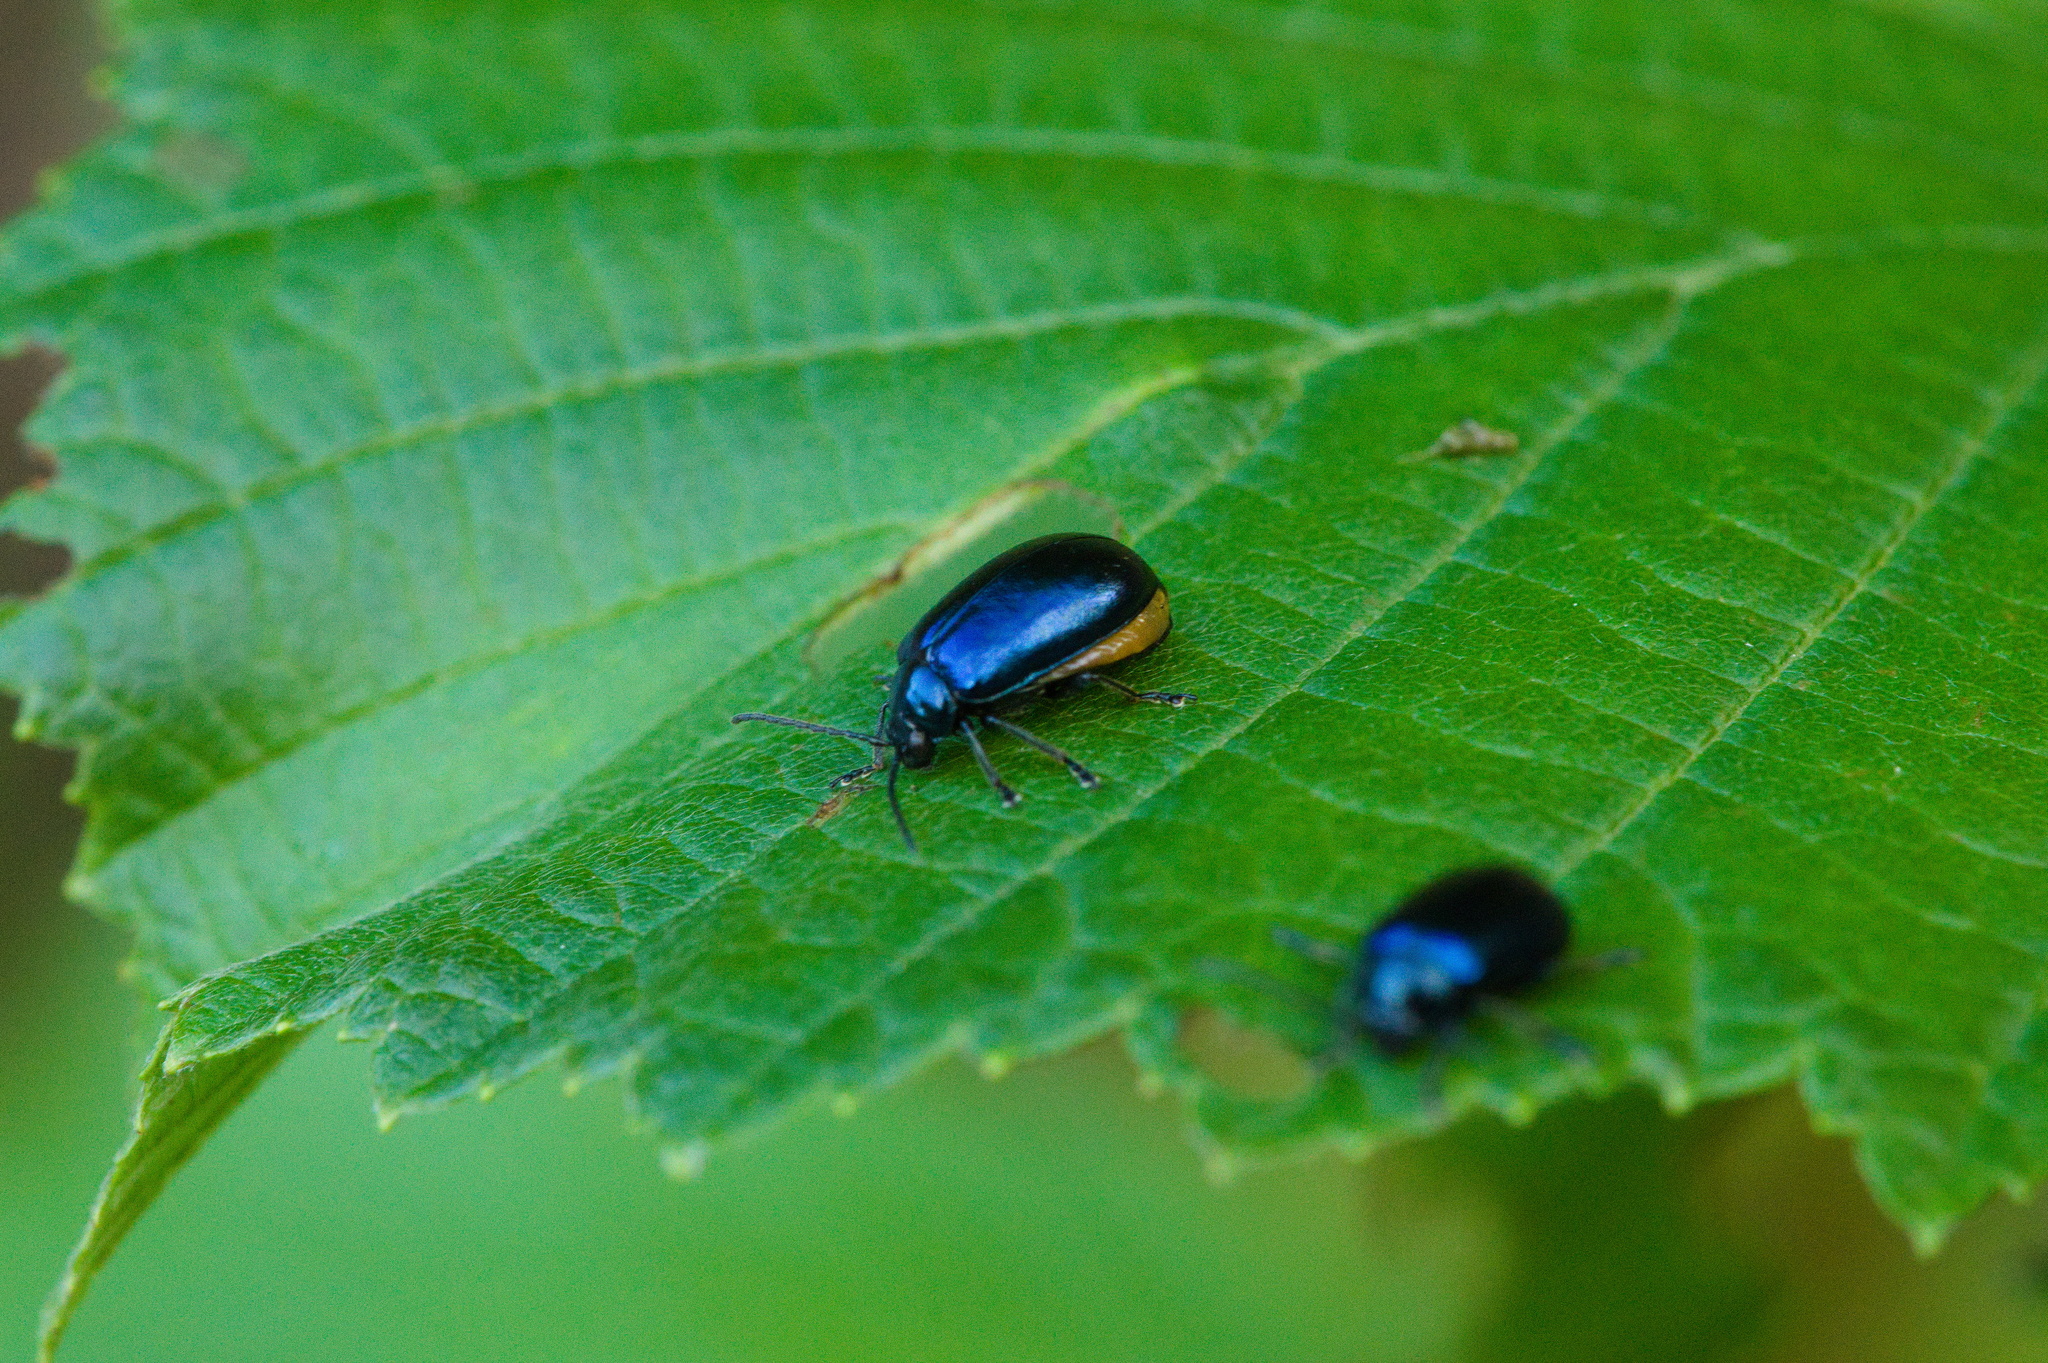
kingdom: Animalia
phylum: Arthropoda
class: Insecta
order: Coleoptera
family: Chrysomelidae
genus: Agelastica
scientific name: Agelastica alni
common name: Alder leaf beetle
